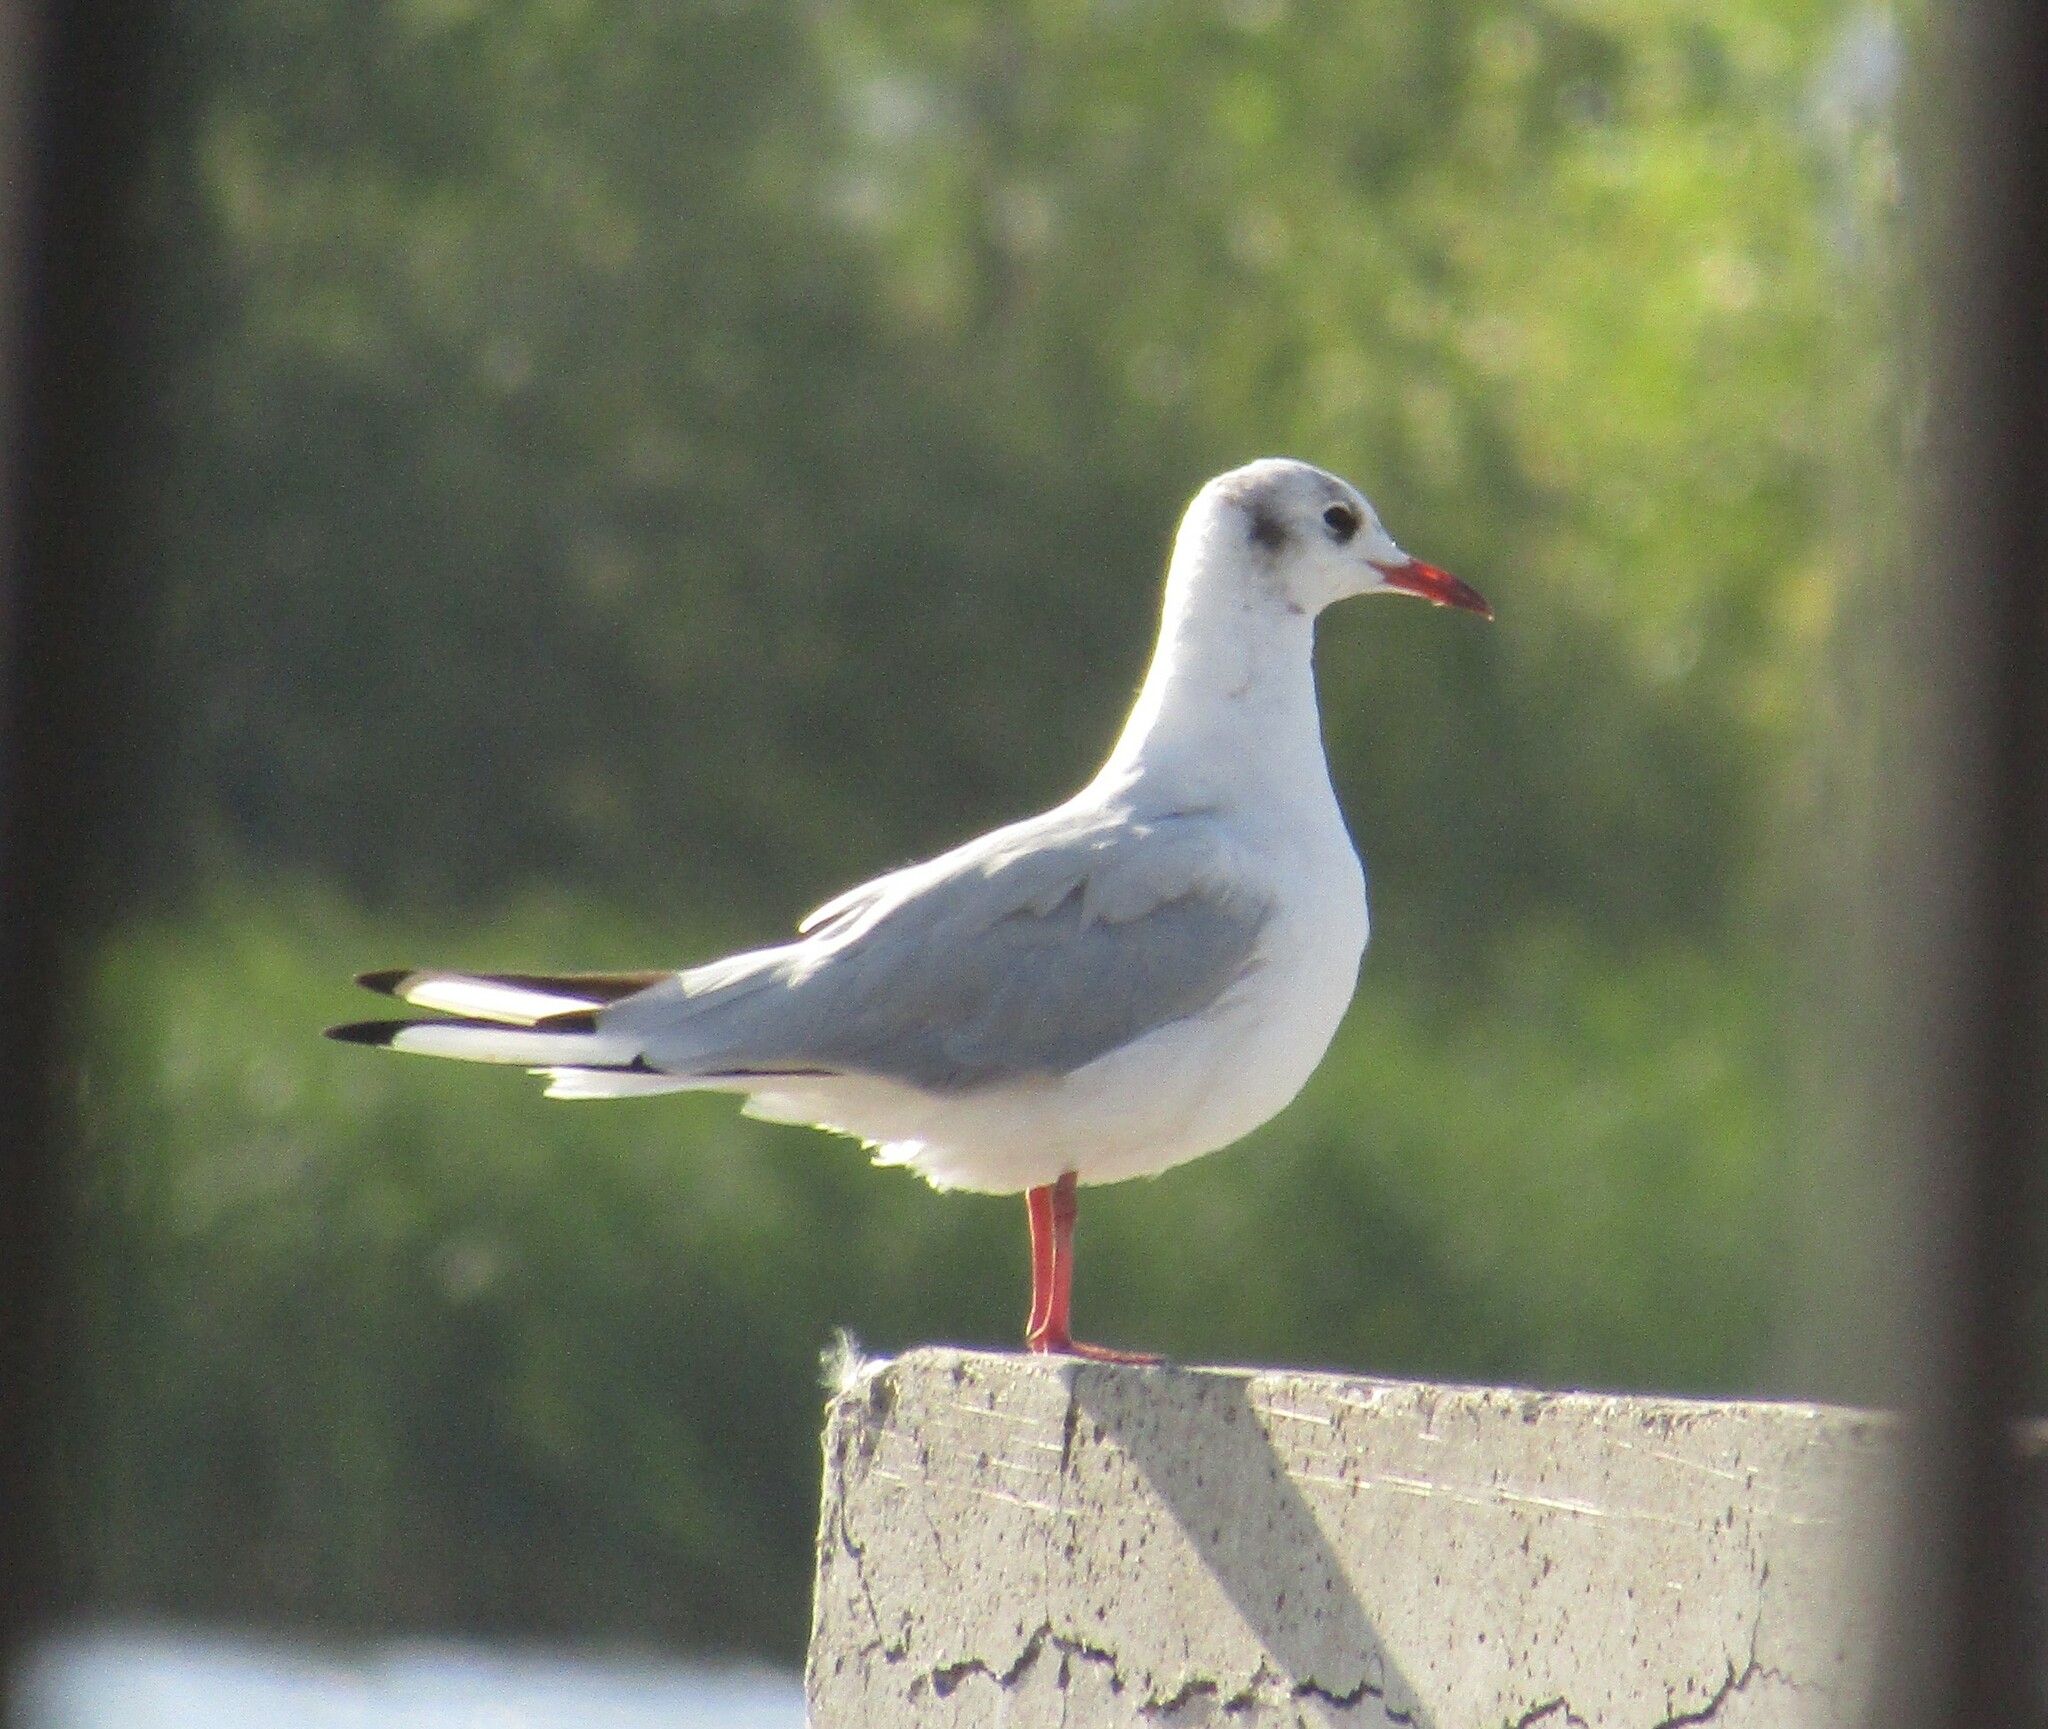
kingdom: Animalia
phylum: Chordata
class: Aves
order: Charadriiformes
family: Laridae
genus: Chroicocephalus
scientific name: Chroicocephalus ridibundus
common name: Black-headed gull
